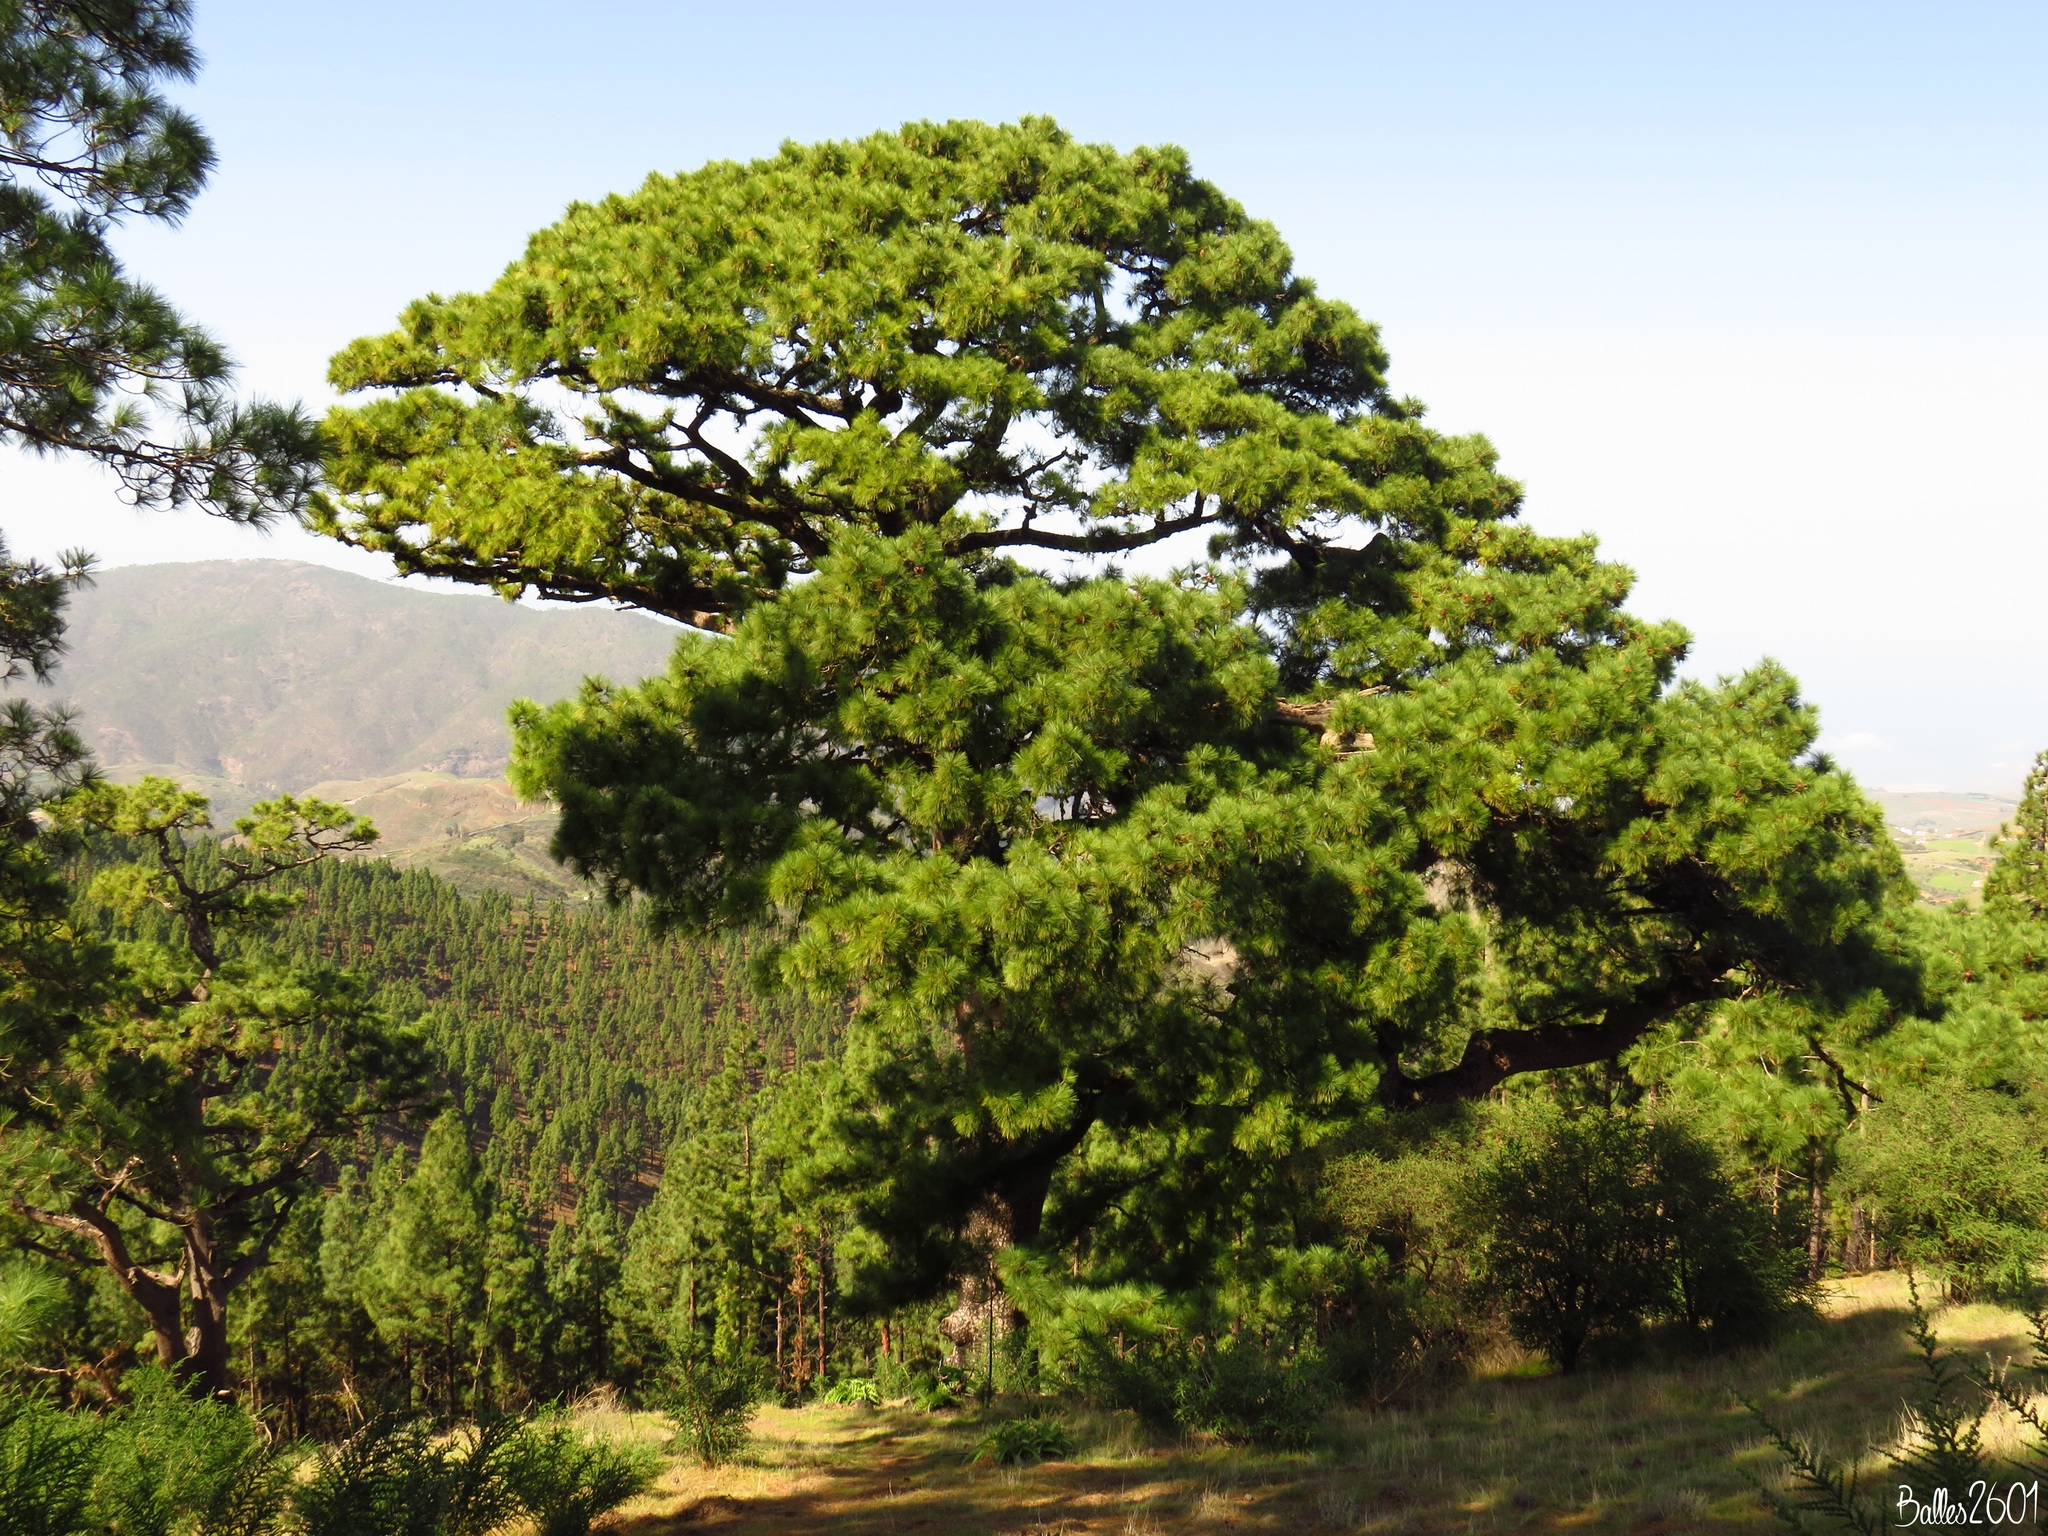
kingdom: Plantae
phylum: Tracheophyta
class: Pinopsida
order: Pinales
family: Pinaceae
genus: Pinus
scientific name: Pinus canariensis
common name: Canary islands pine
